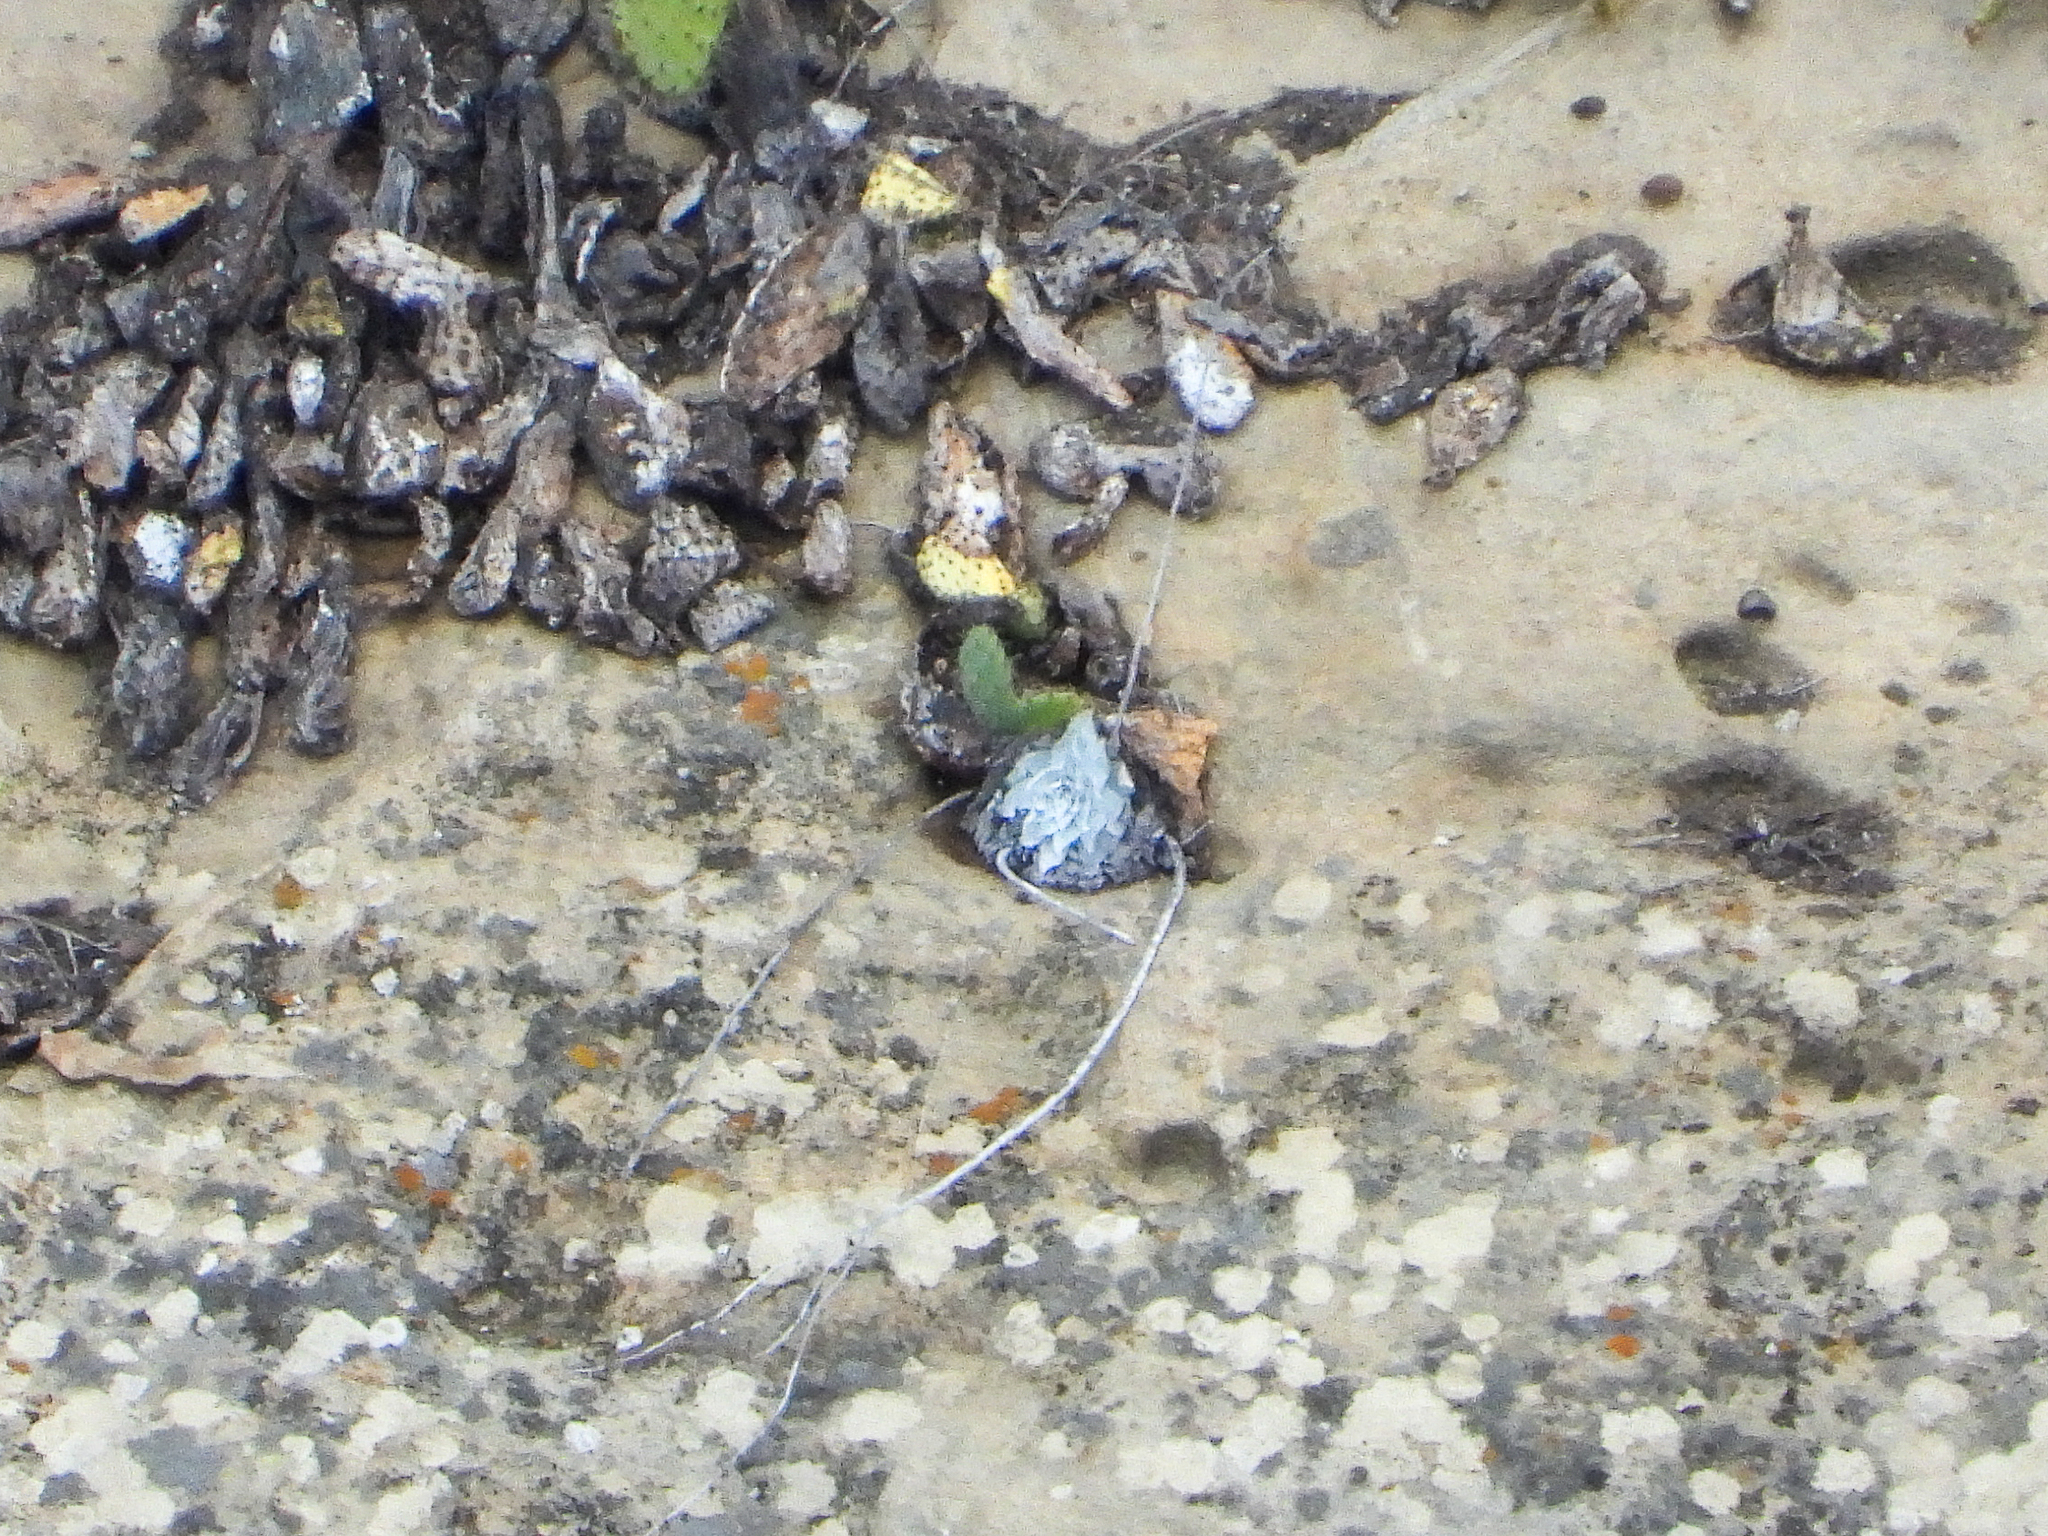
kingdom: Plantae
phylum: Tracheophyta
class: Magnoliopsida
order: Saxifragales
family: Crassulaceae
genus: Dudleya
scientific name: Dudleya pulverulenta
